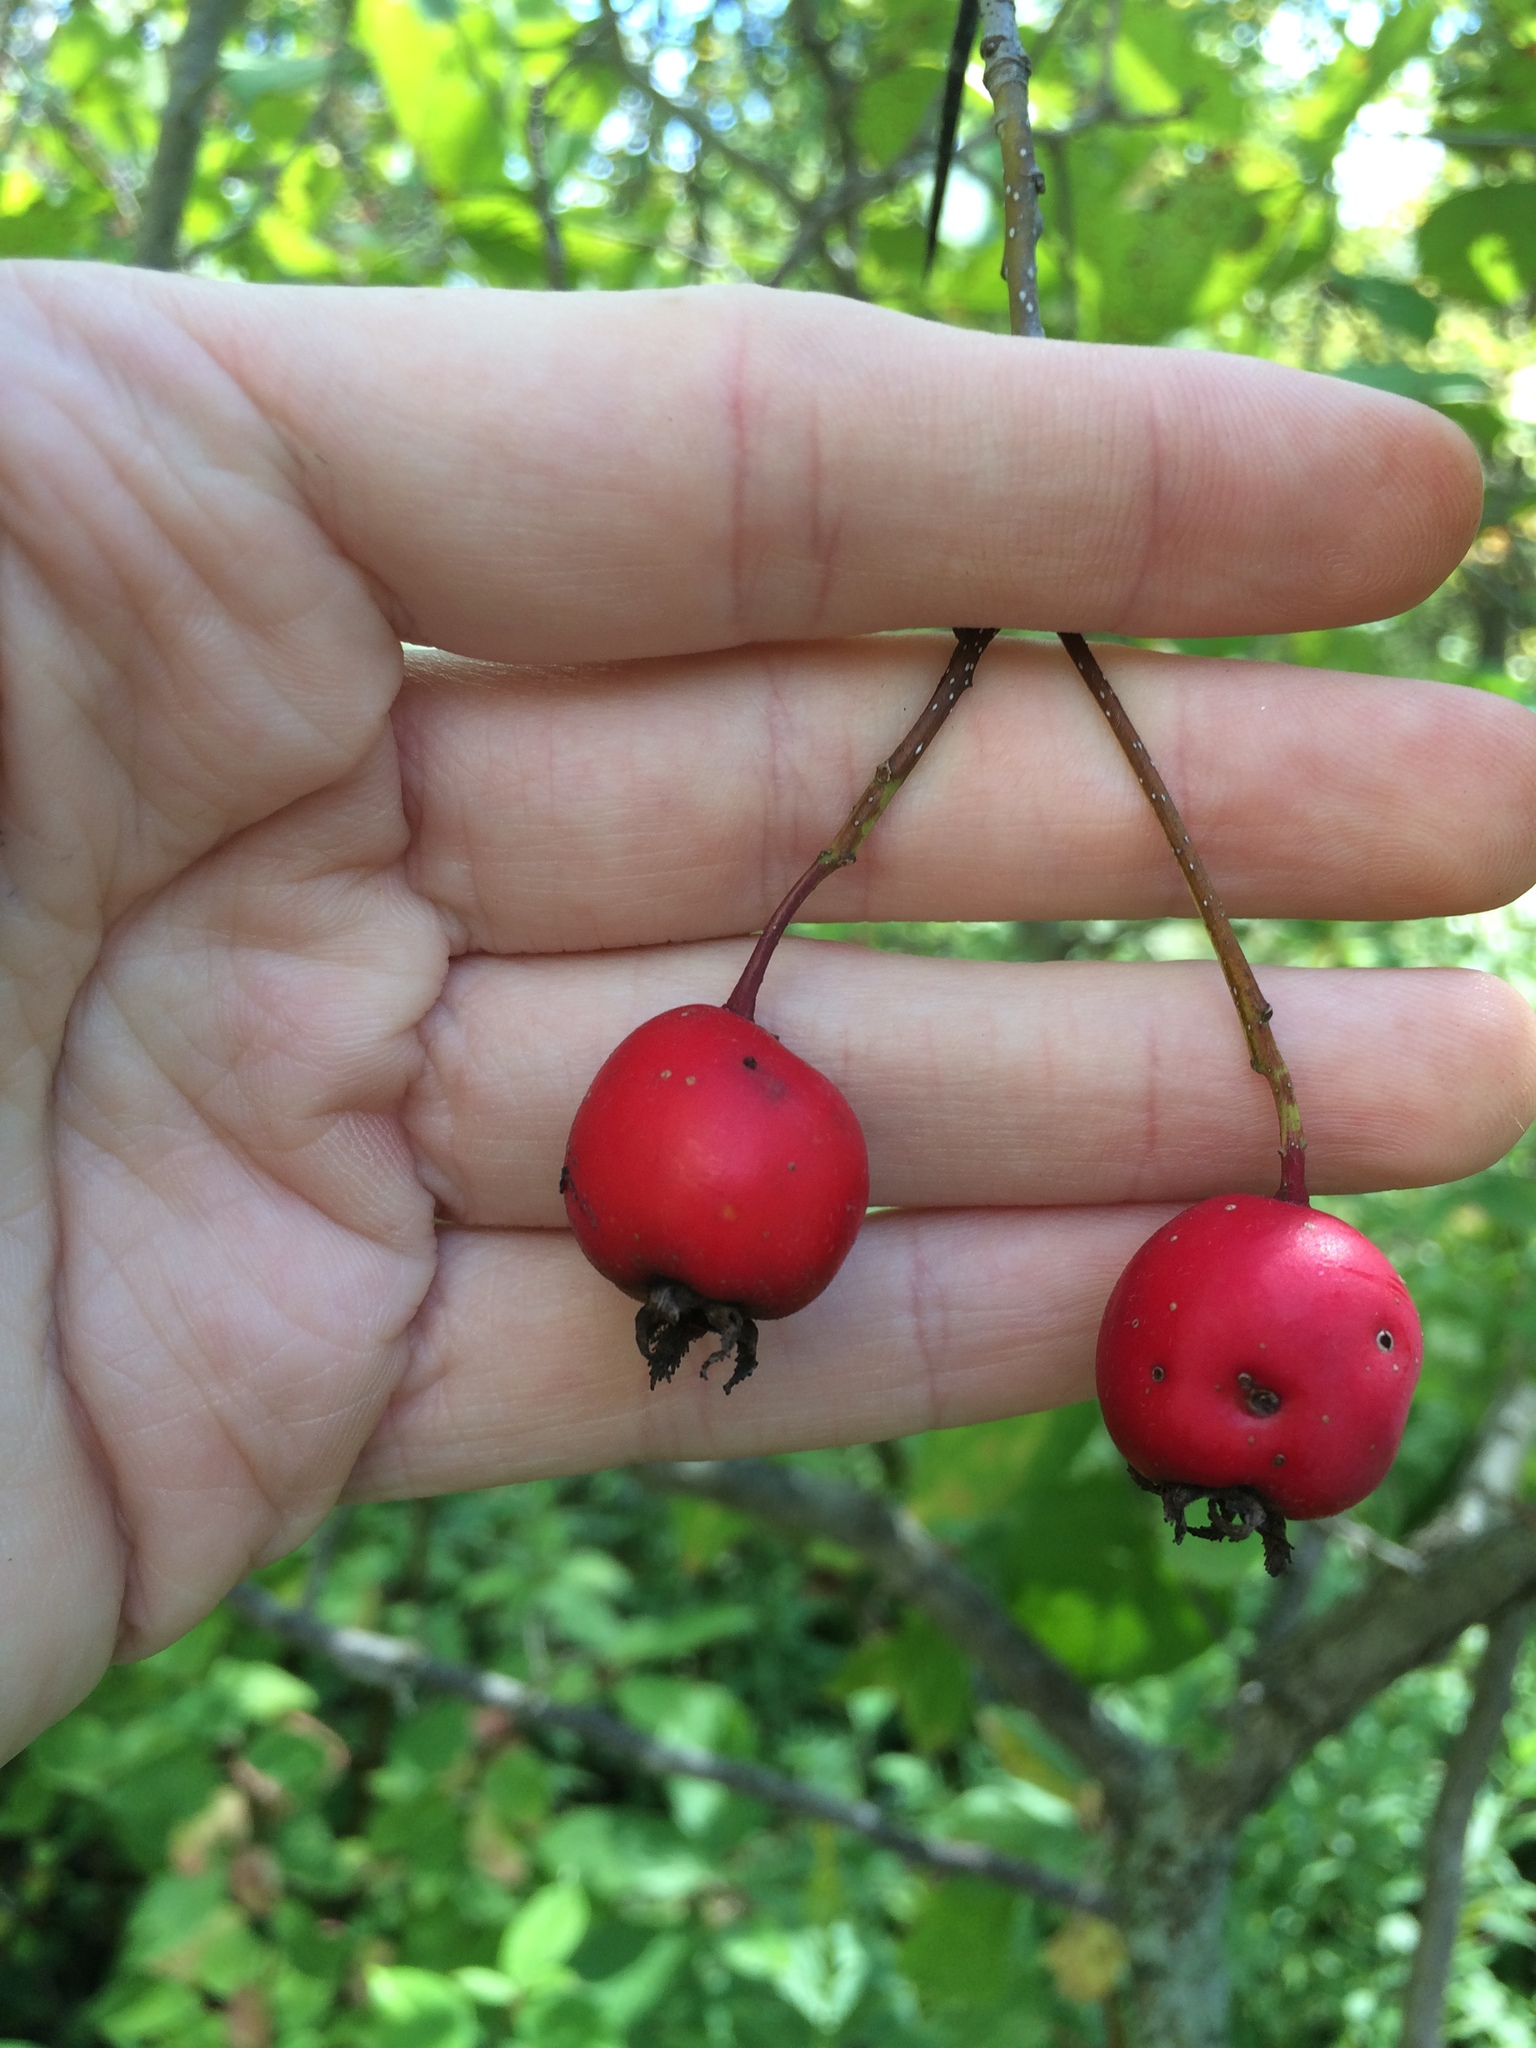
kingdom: Plantae
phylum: Tracheophyta
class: Magnoliopsida
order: Rosales
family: Rosaceae
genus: Crataegus
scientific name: Crataegus submollis
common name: Hairy cockspurthorn
